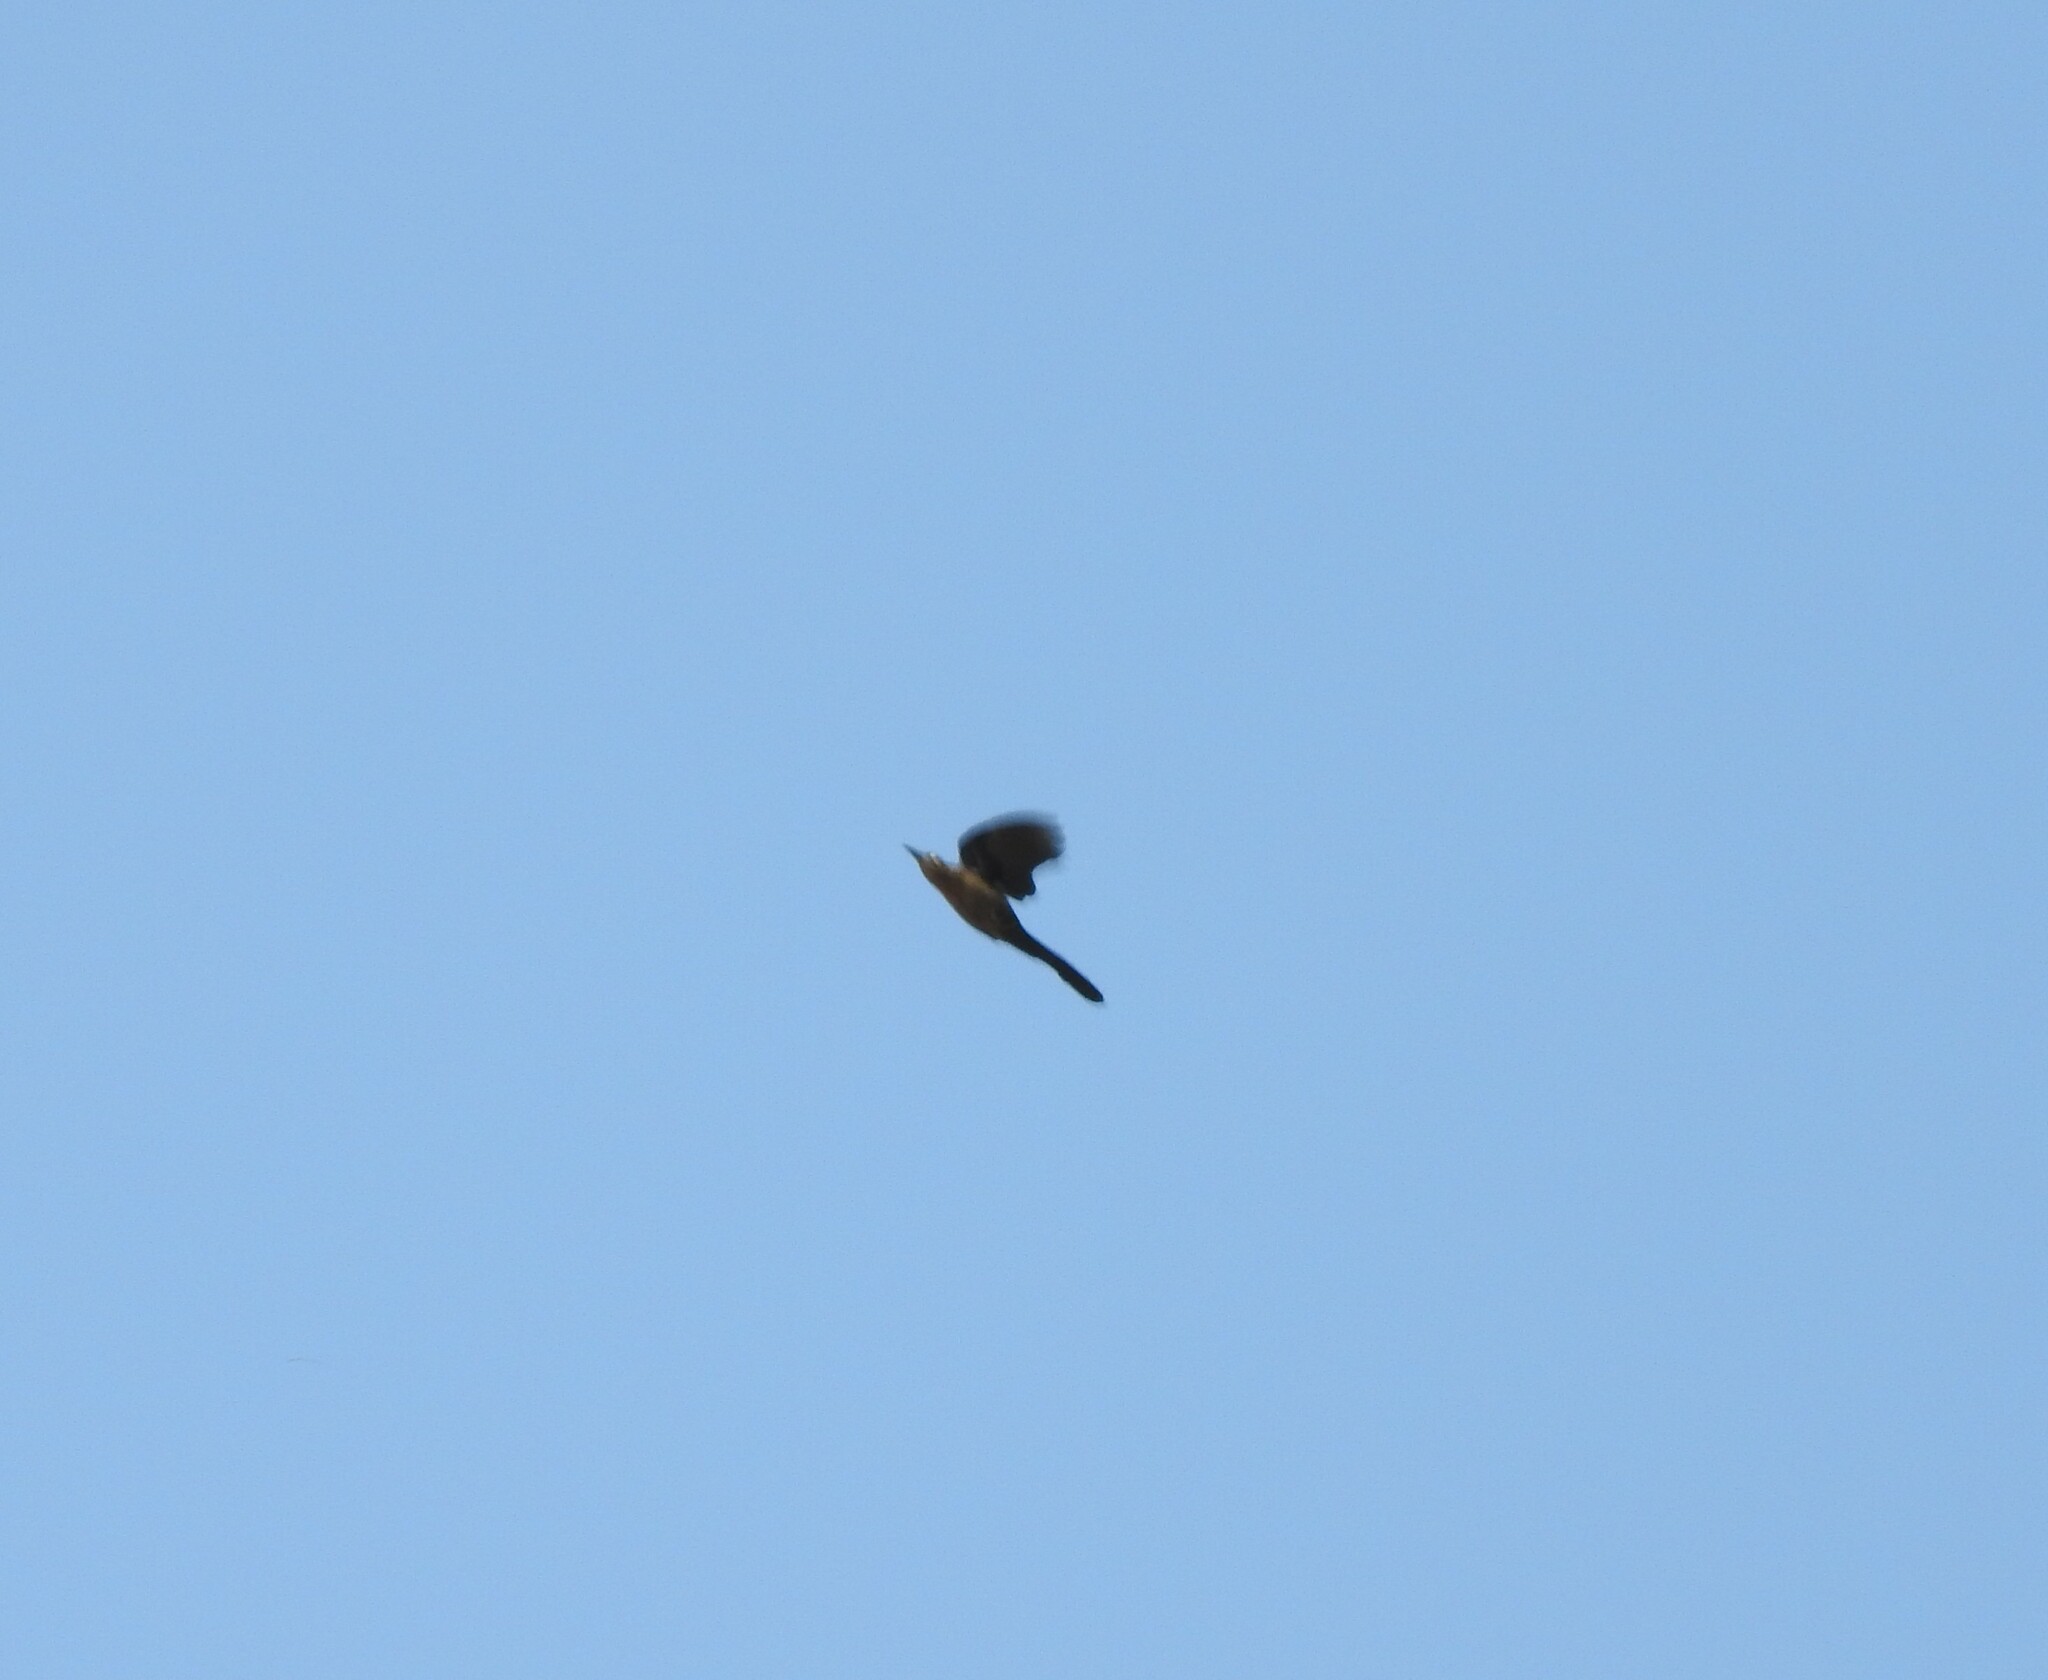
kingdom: Animalia
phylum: Chordata
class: Aves
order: Passeriformes
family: Icteridae
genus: Quiscalus
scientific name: Quiscalus mexicanus
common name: Great-tailed grackle
